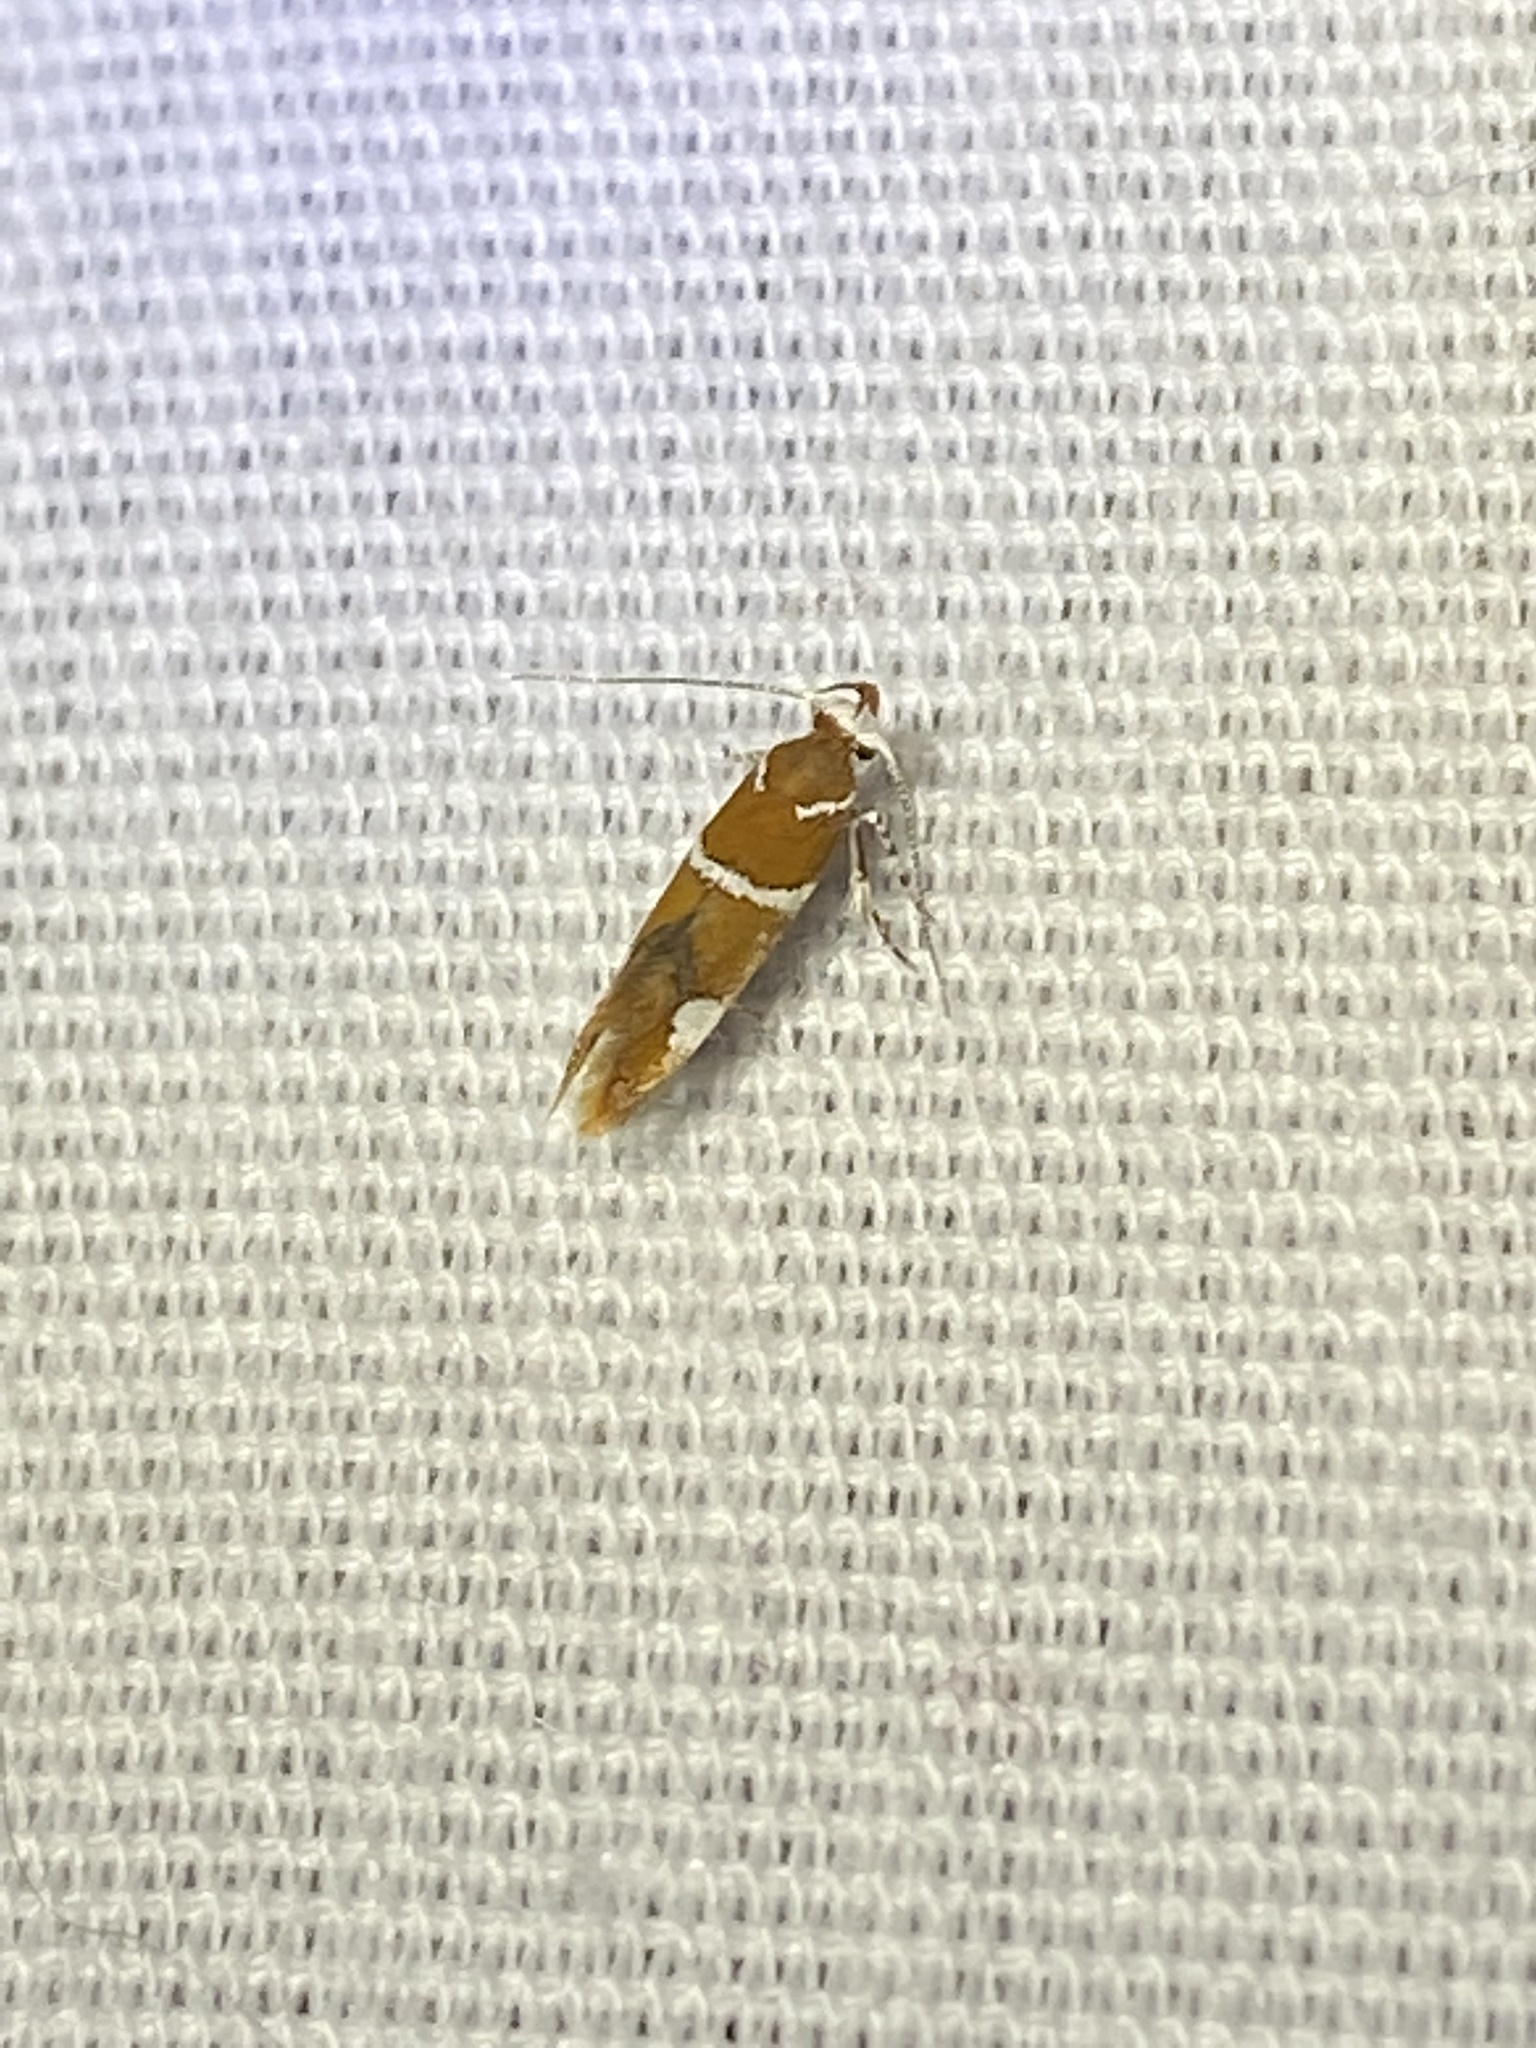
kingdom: Animalia
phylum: Arthropoda
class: Insecta
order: Lepidoptera
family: Oecophoridae
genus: Promalactis
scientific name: Promalactis suzukiella
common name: Moth
